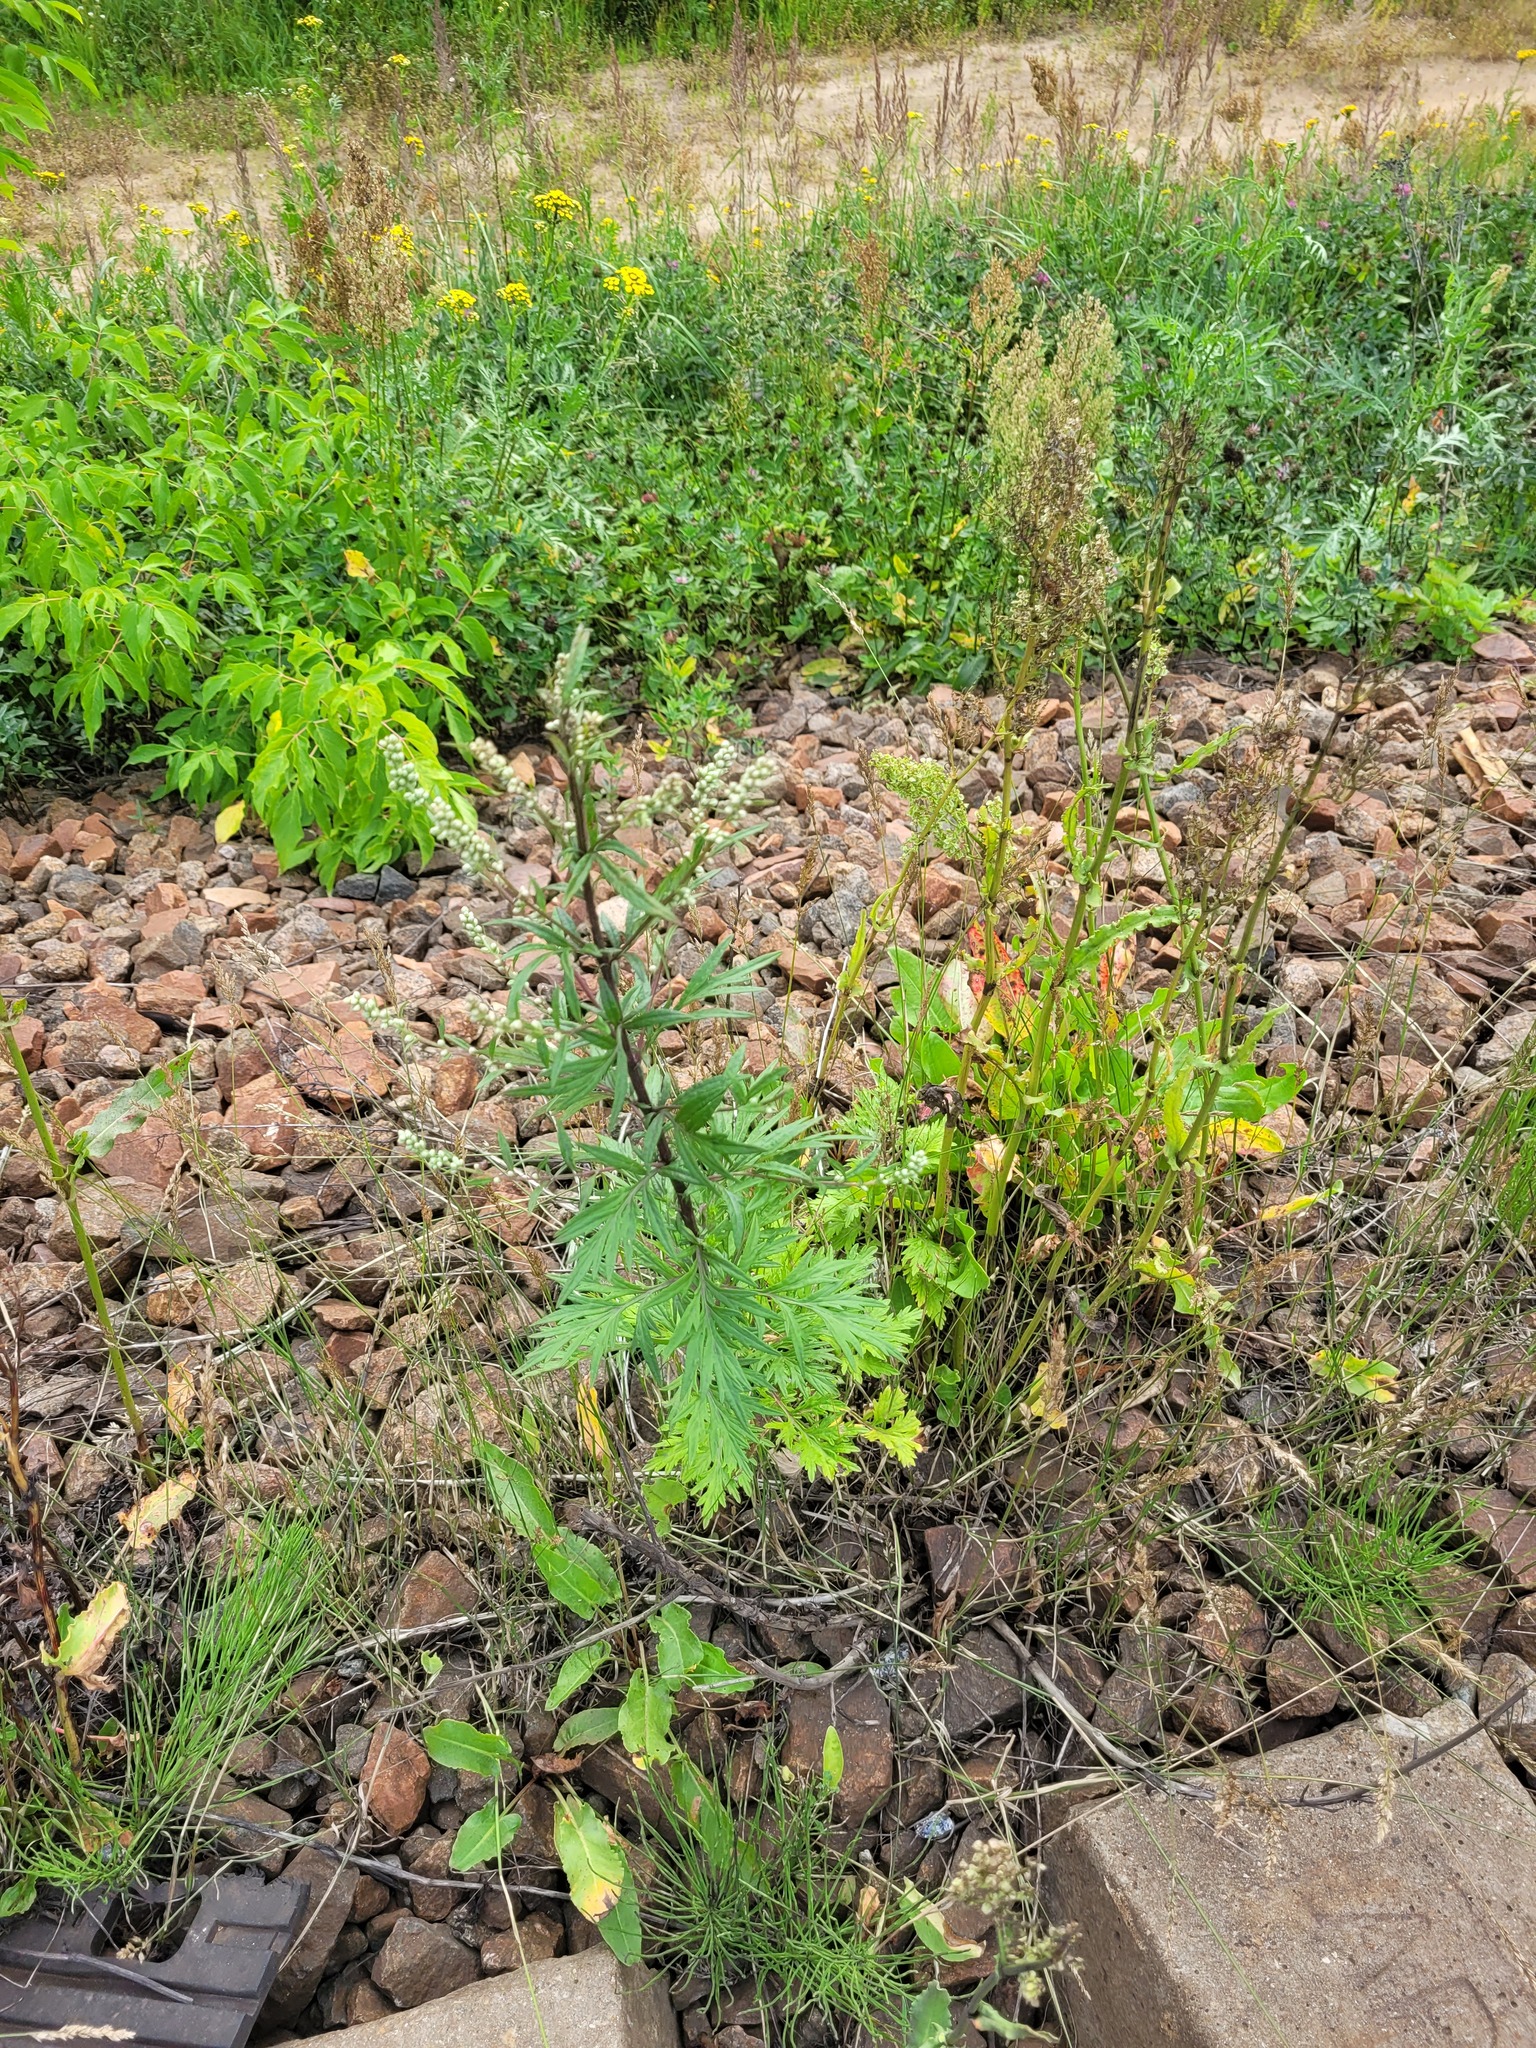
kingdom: Plantae
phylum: Tracheophyta
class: Magnoliopsida
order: Asterales
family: Asteraceae
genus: Artemisia
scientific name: Artemisia vulgaris
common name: Mugwort
